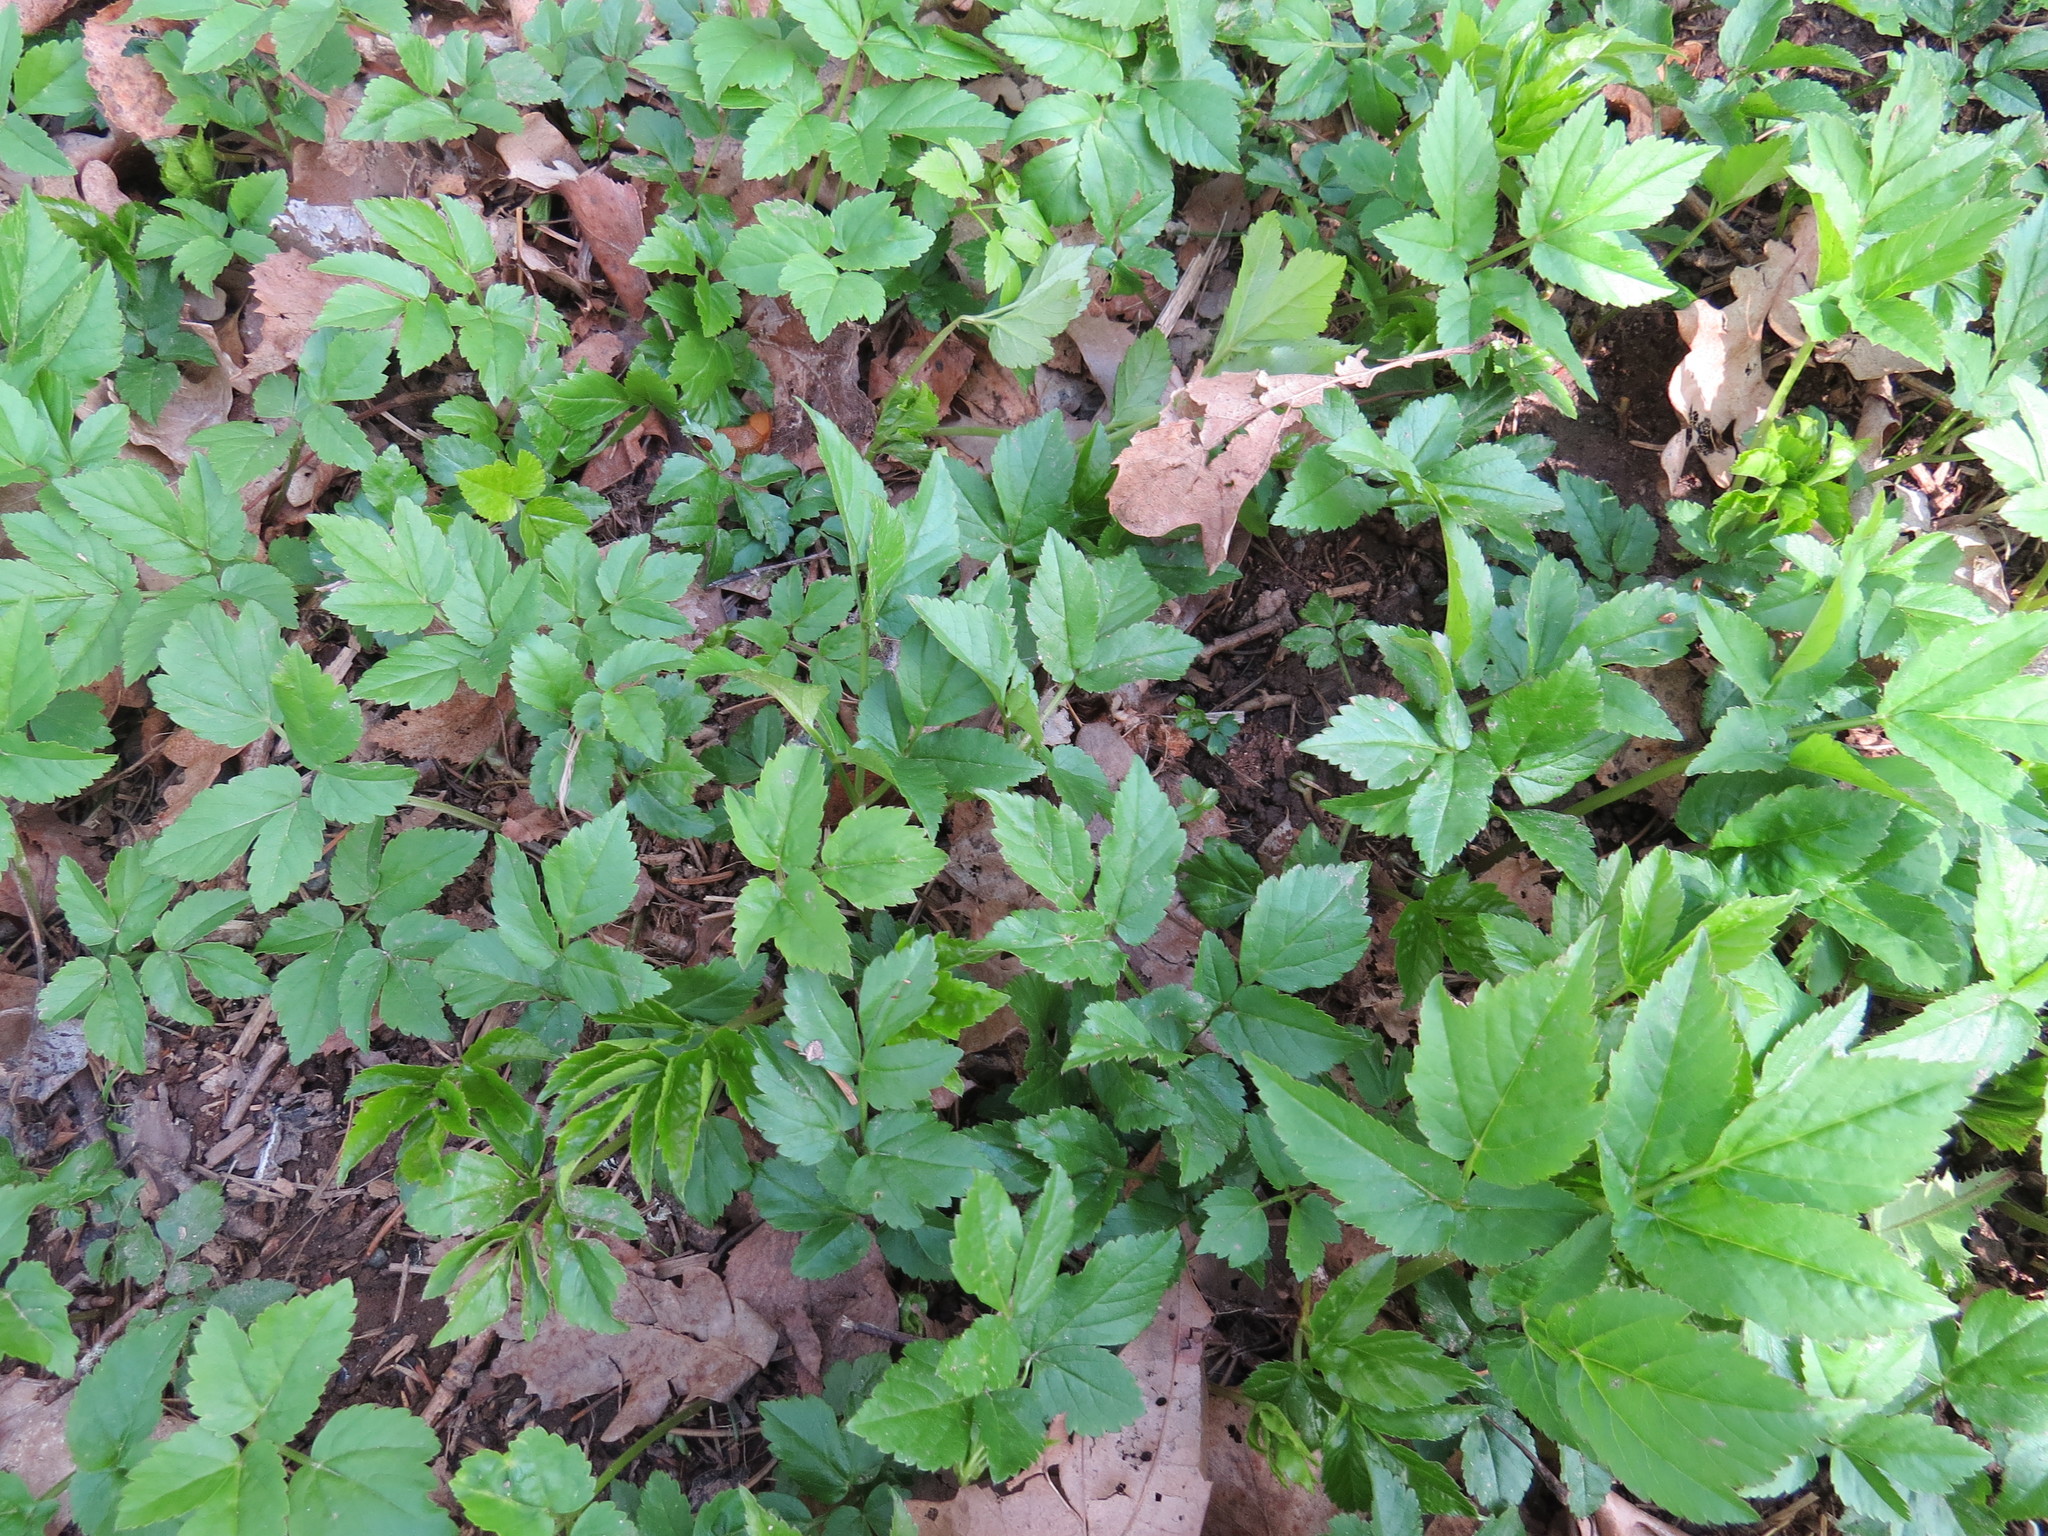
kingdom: Plantae
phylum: Tracheophyta
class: Magnoliopsida
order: Apiales
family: Apiaceae
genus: Aegopodium
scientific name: Aegopodium podagraria
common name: Ground-elder
